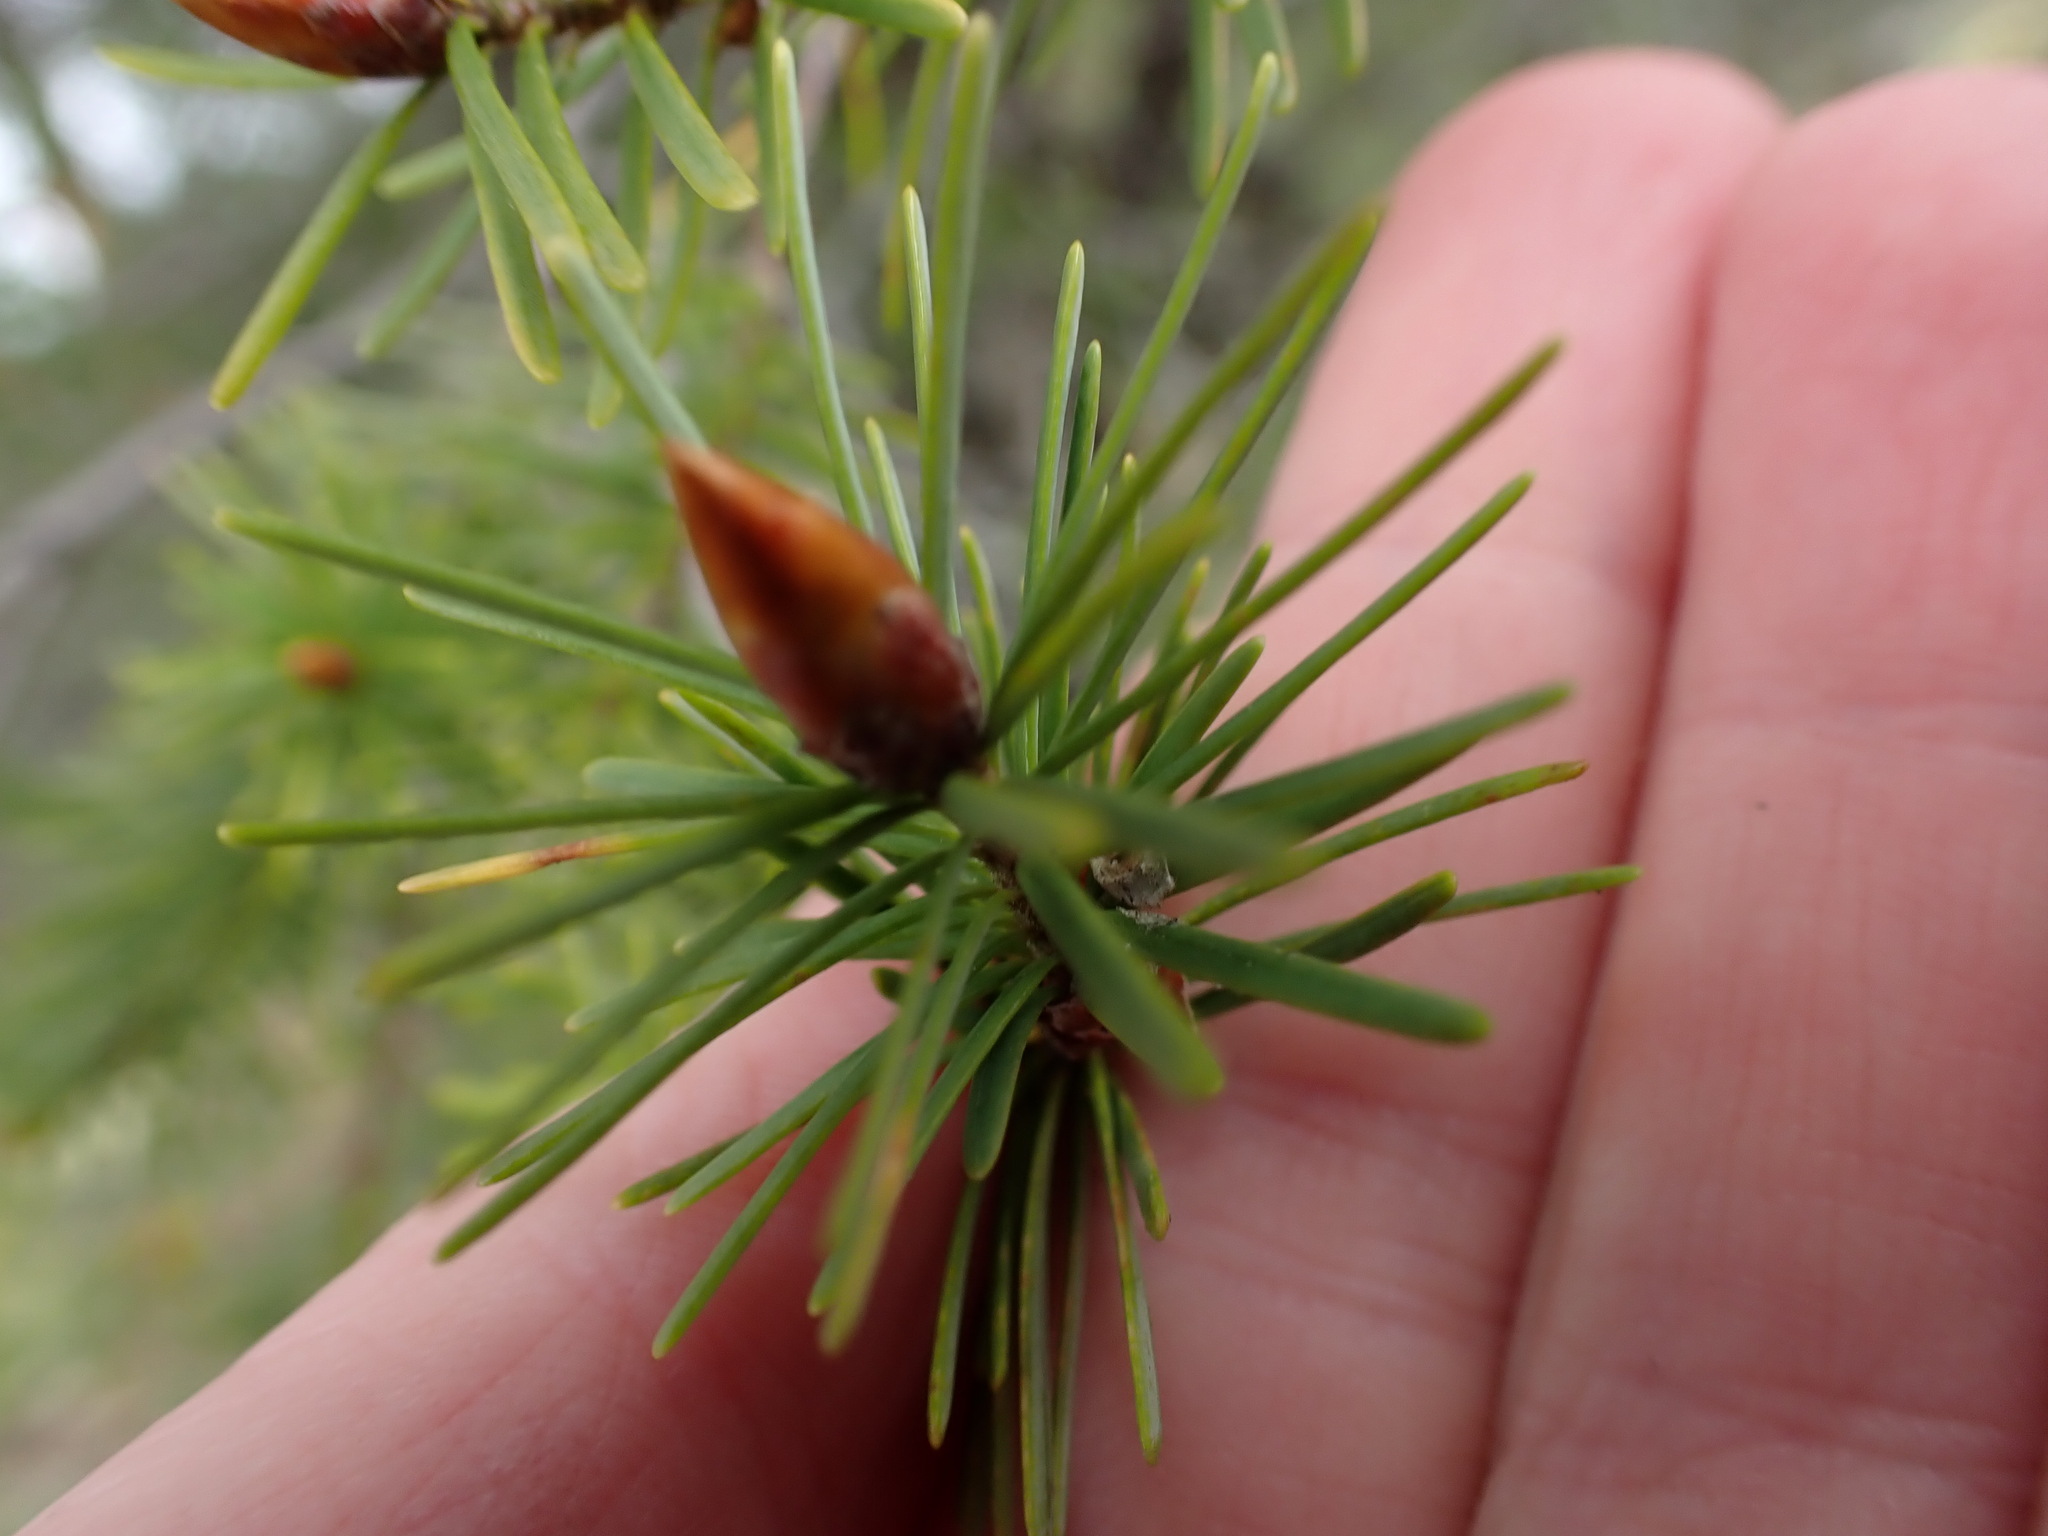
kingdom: Plantae
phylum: Tracheophyta
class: Pinopsida
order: Pinales
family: Pinaceae
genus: Pseudotsuga
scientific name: Pseudotsuga menziesii
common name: Douglas fir
